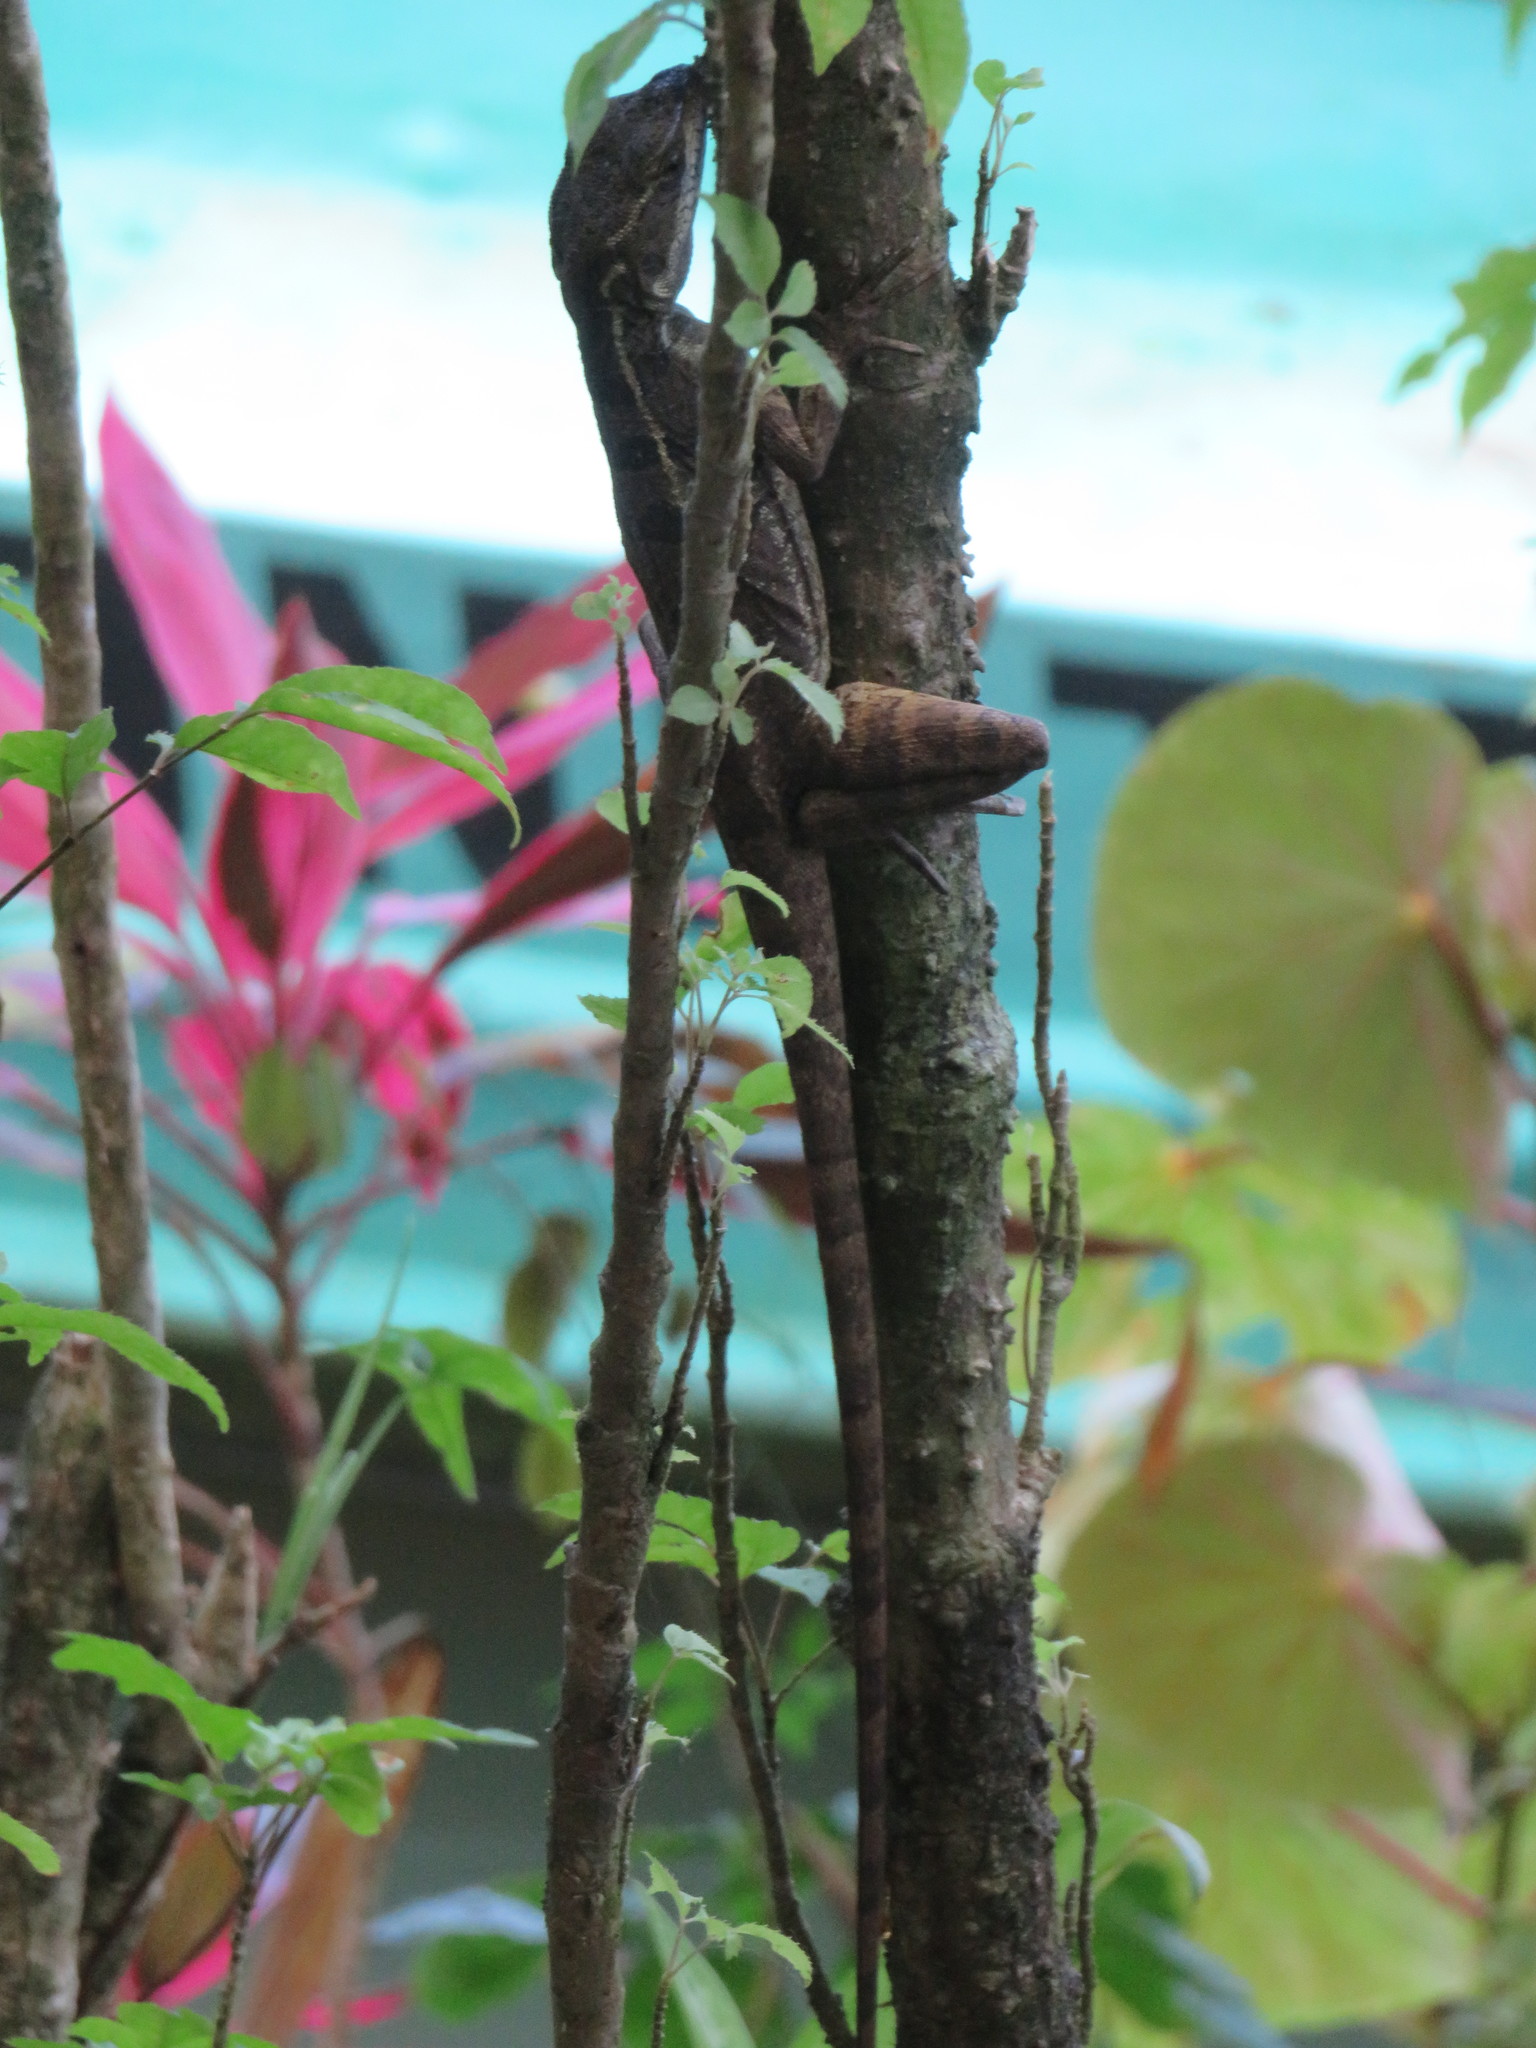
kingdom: Animalia
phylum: Chordata
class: Squamata
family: Corytophanidae
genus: Basiliscus
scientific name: Basiliscus basiliscus
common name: Common basilisk
